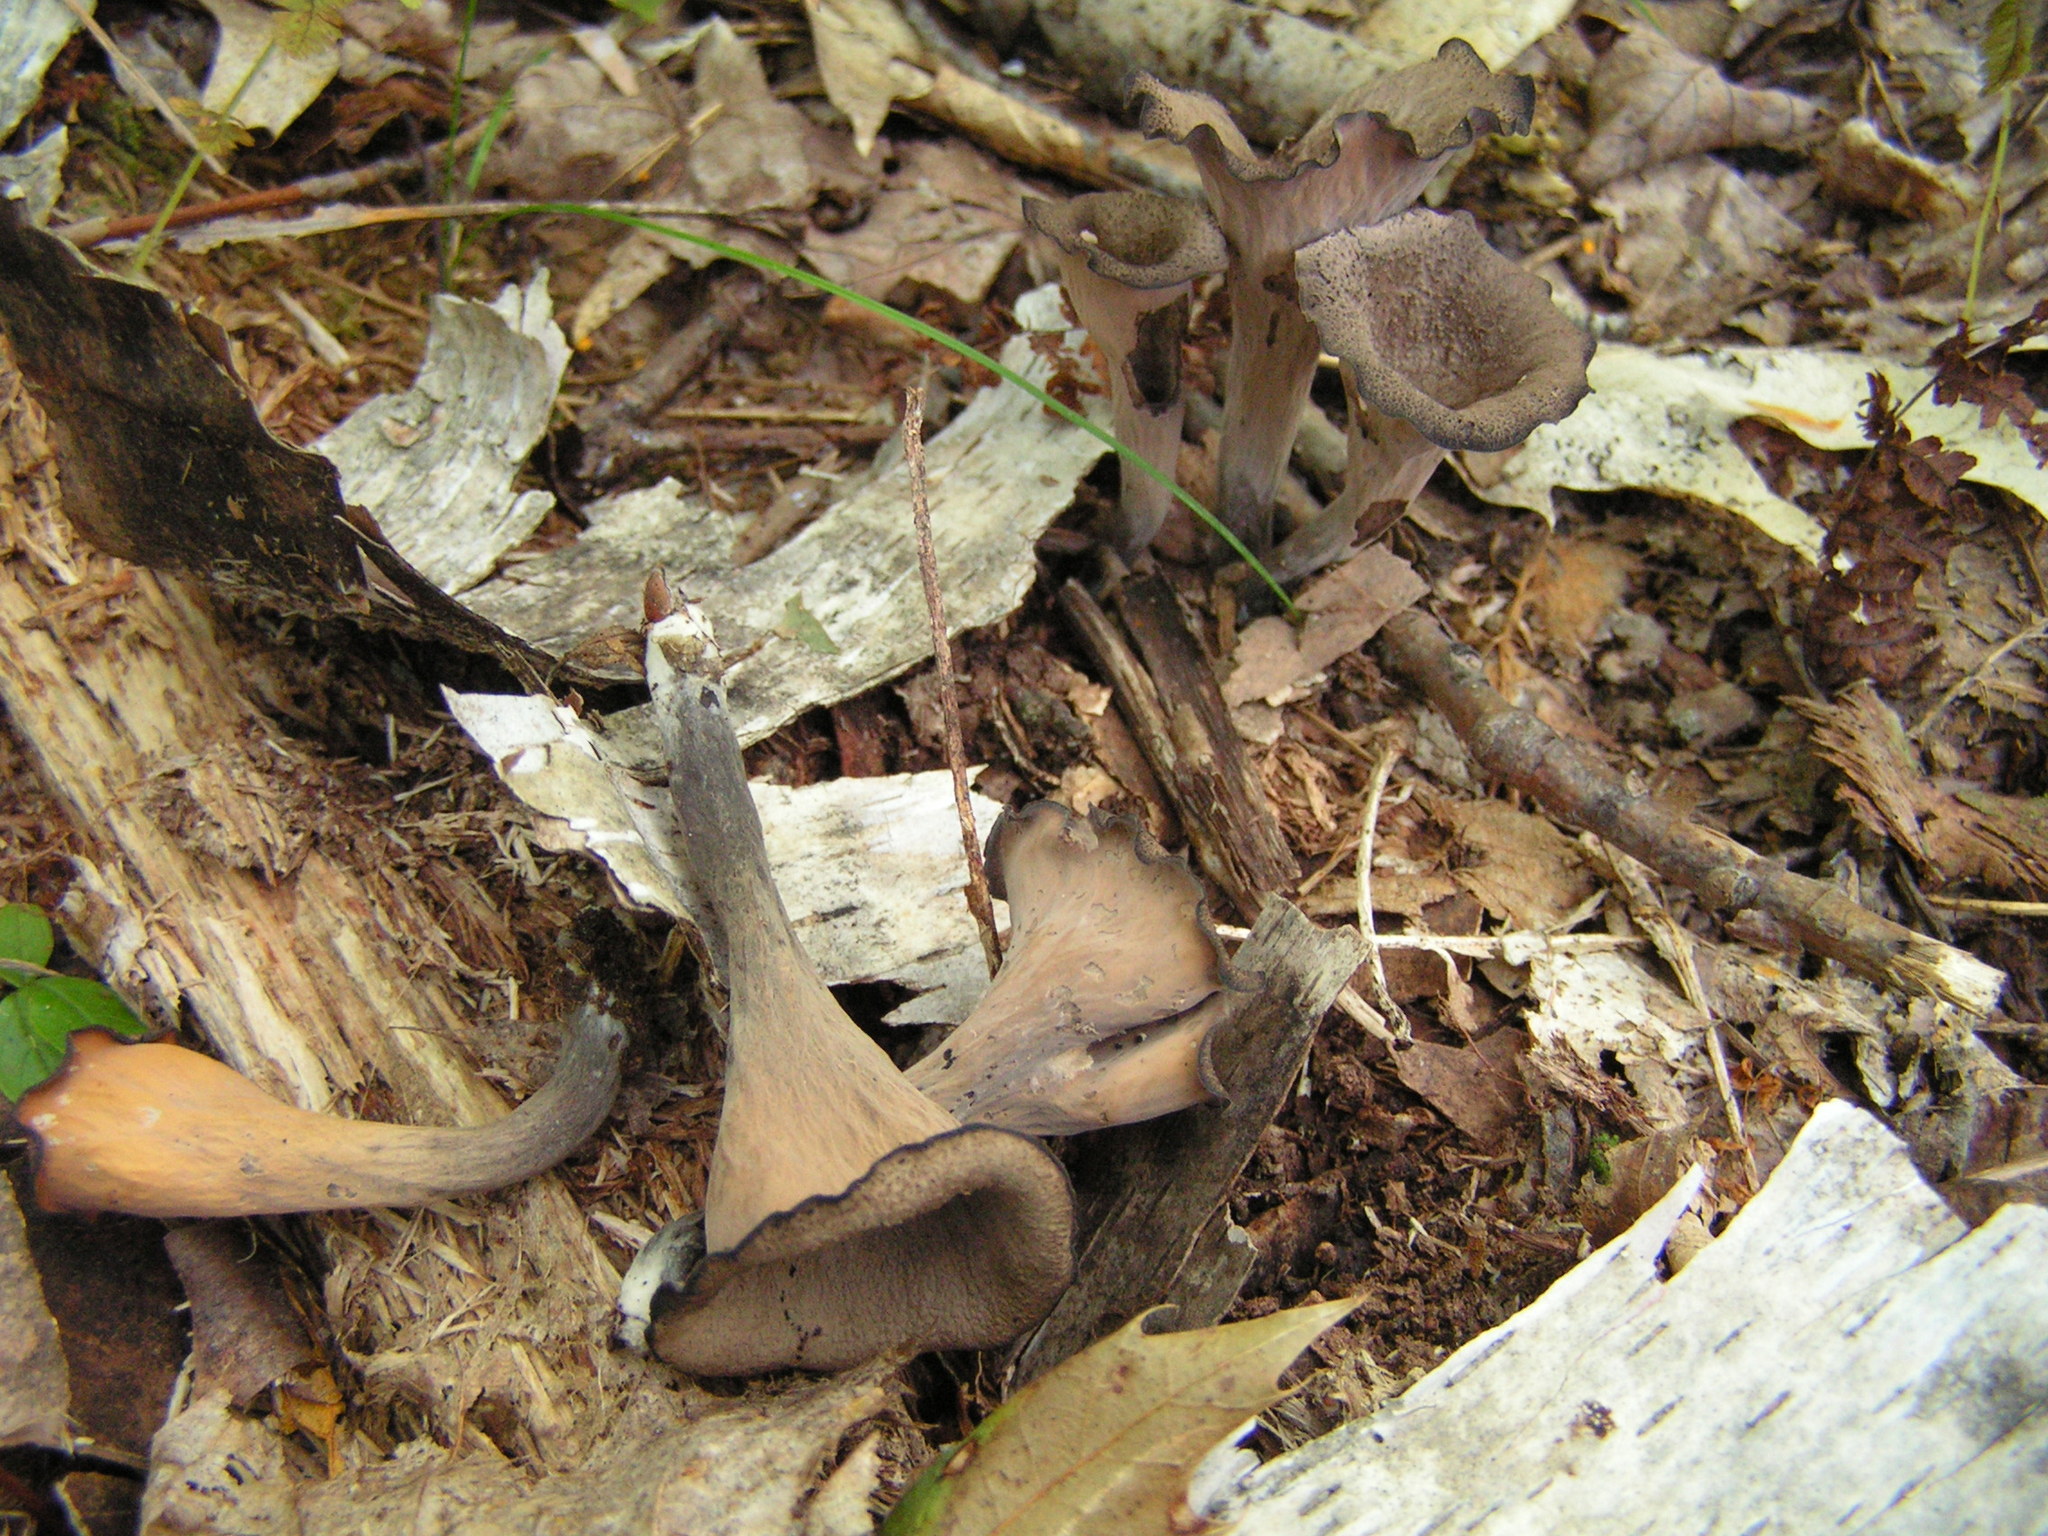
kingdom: Fungi
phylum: Basidiomycota
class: Agaricomycetes
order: Cantharellales
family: Hydnaceae
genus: Craterellus
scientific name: Craterellus cornucopioides
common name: Horn of plenty
